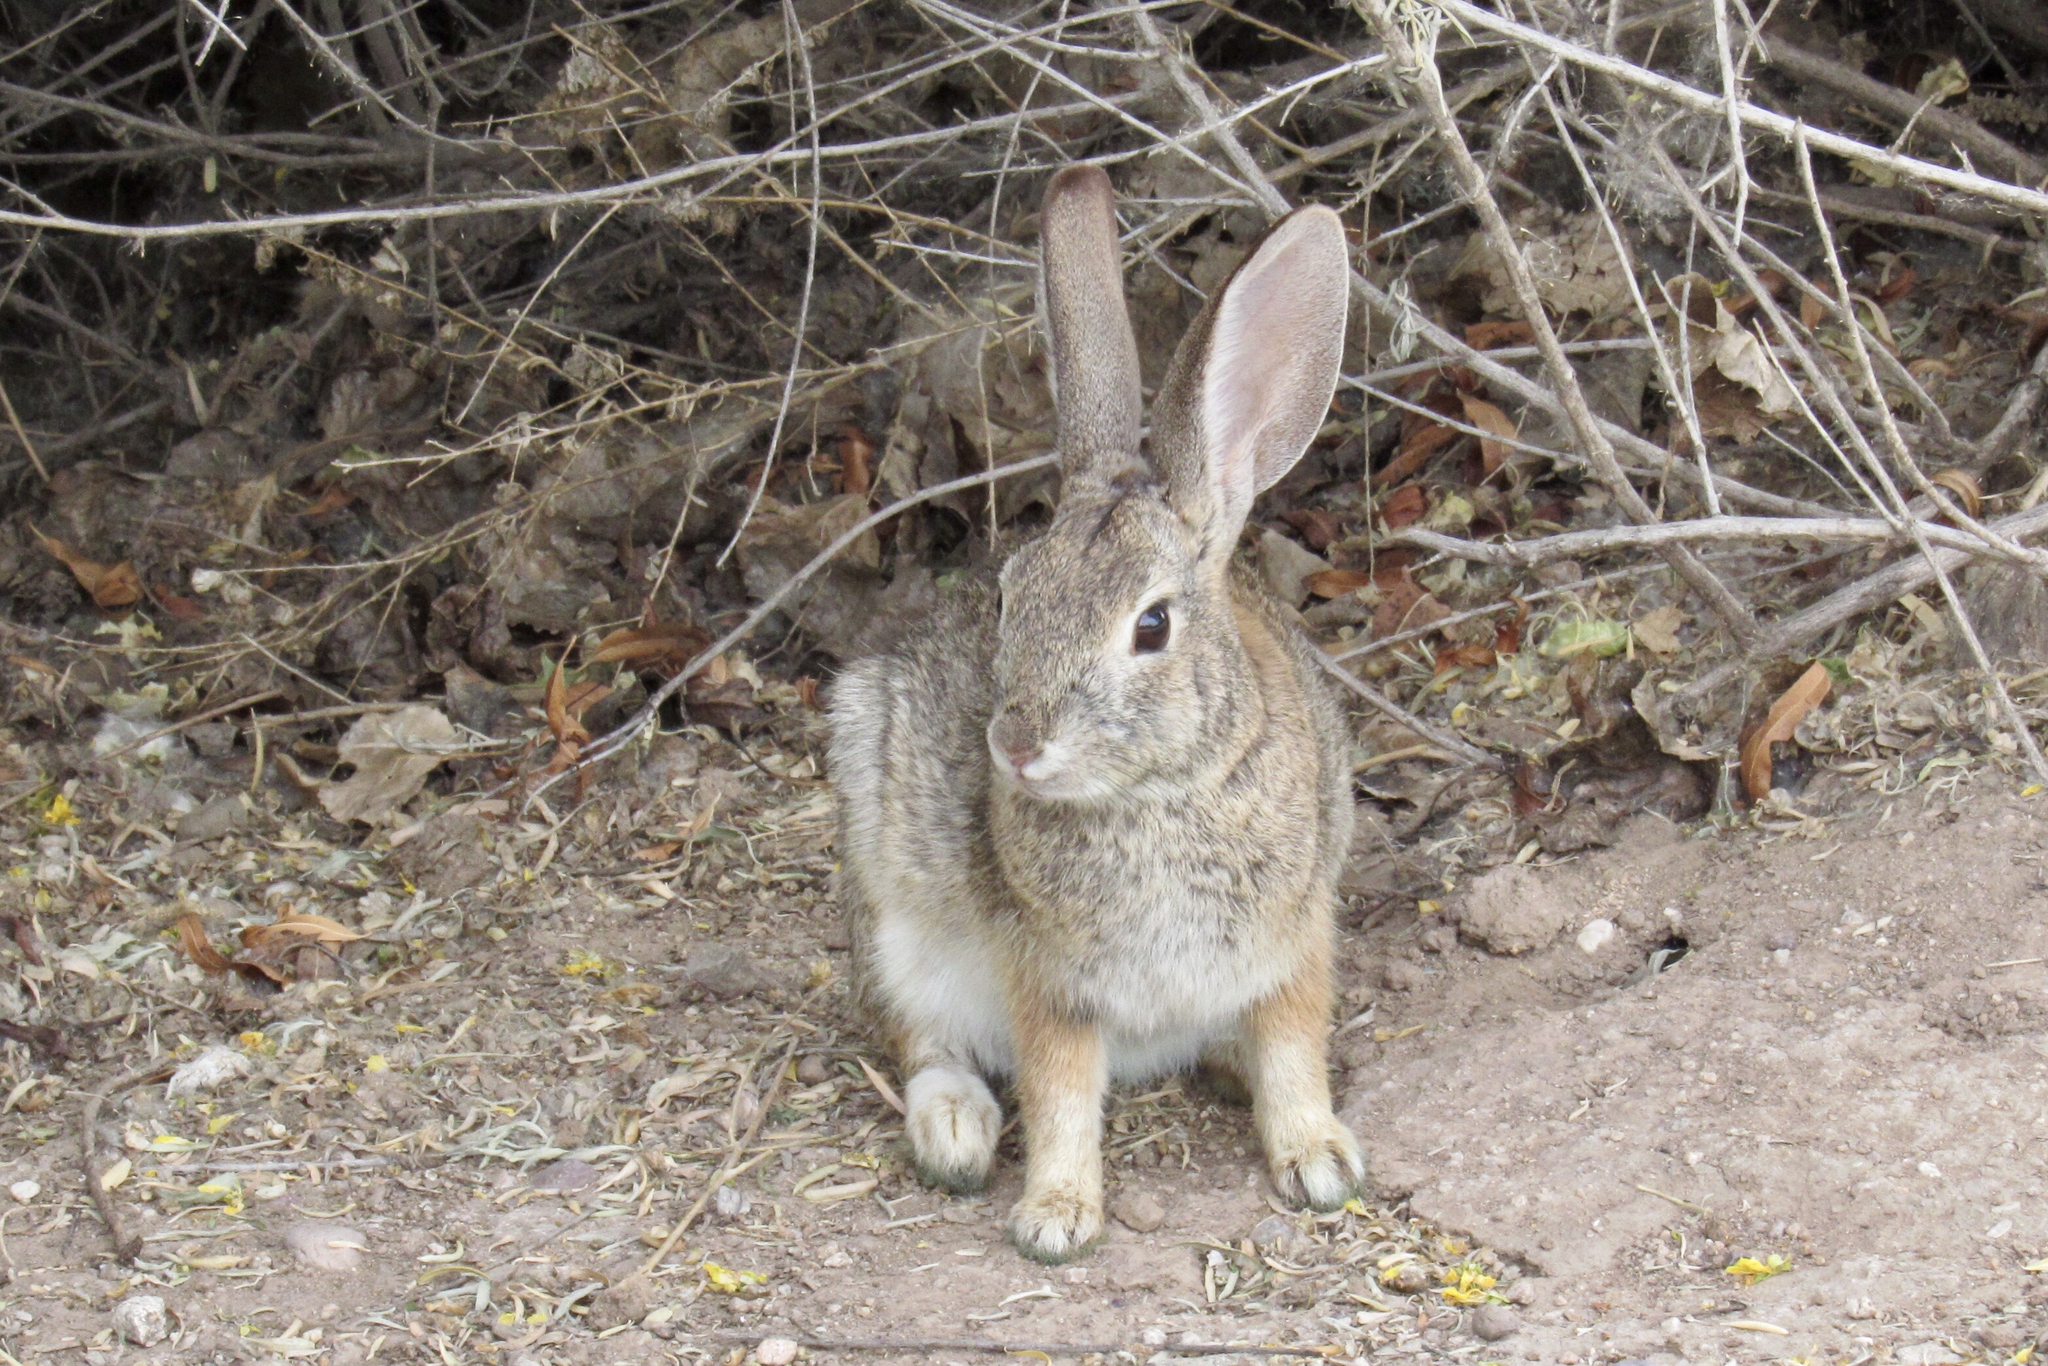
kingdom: Animalia
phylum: Chordata
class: Mammalia
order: Lagomorpha
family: Leporidae
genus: Sylvilagus
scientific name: Sylvilagus audubonii
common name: Desert cottontail
